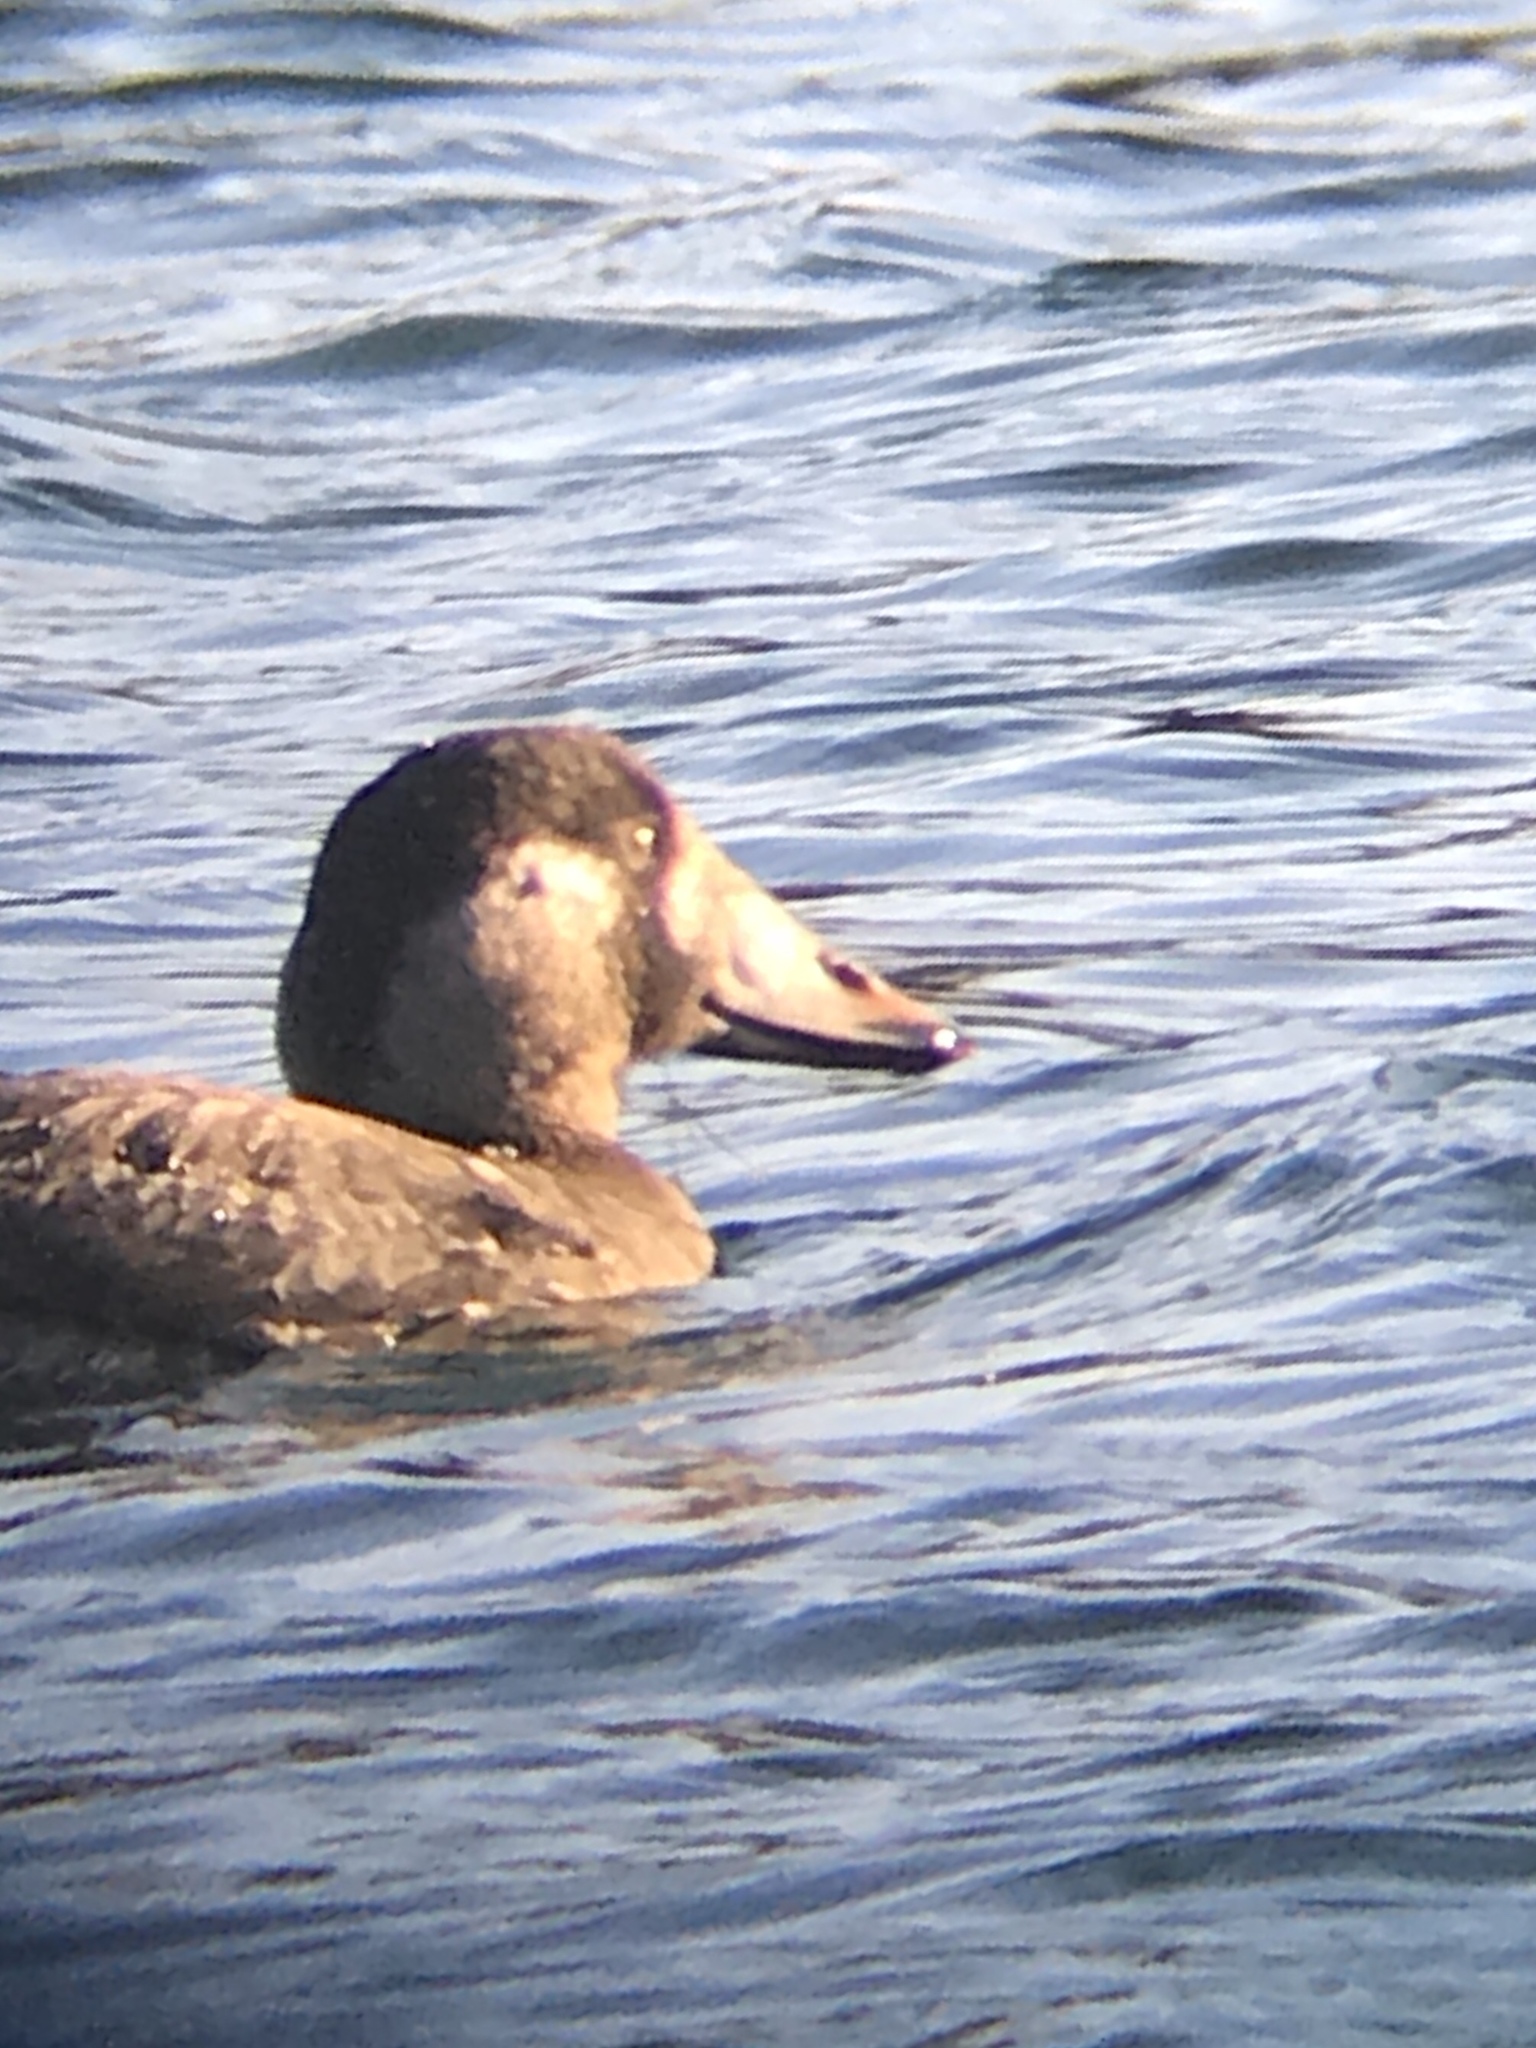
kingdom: Animalia
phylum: Chordata
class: Aves
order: Anseriformes
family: Anatidae
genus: Melanitta
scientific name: Melanitta perspicillata
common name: Surf scoter
